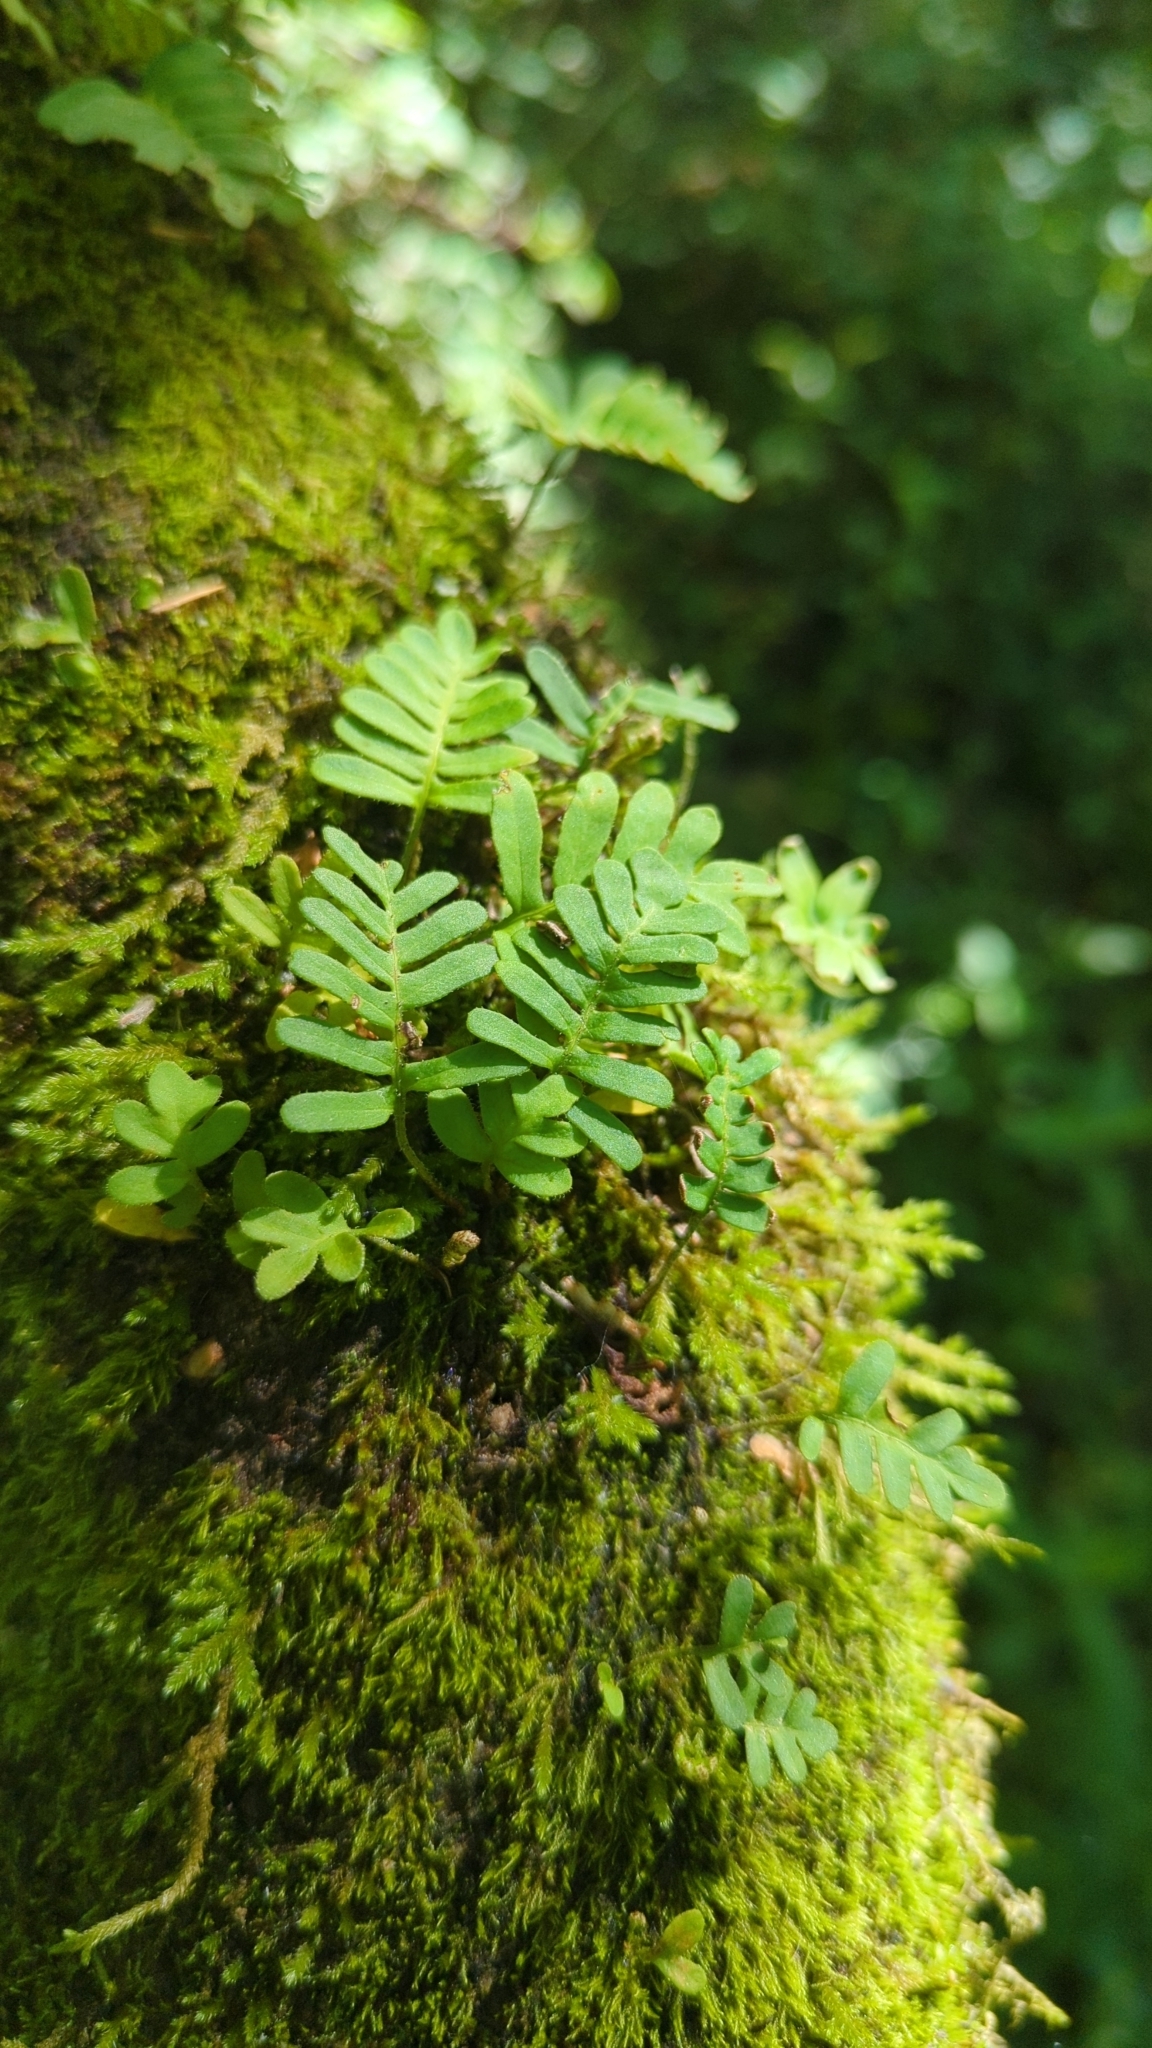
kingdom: Plantae
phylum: Tracheophyta
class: Polypodiopsida
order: Polypodiales
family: Polypodiaceae
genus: Pleopeltis
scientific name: Pleopeltis michauxiana
